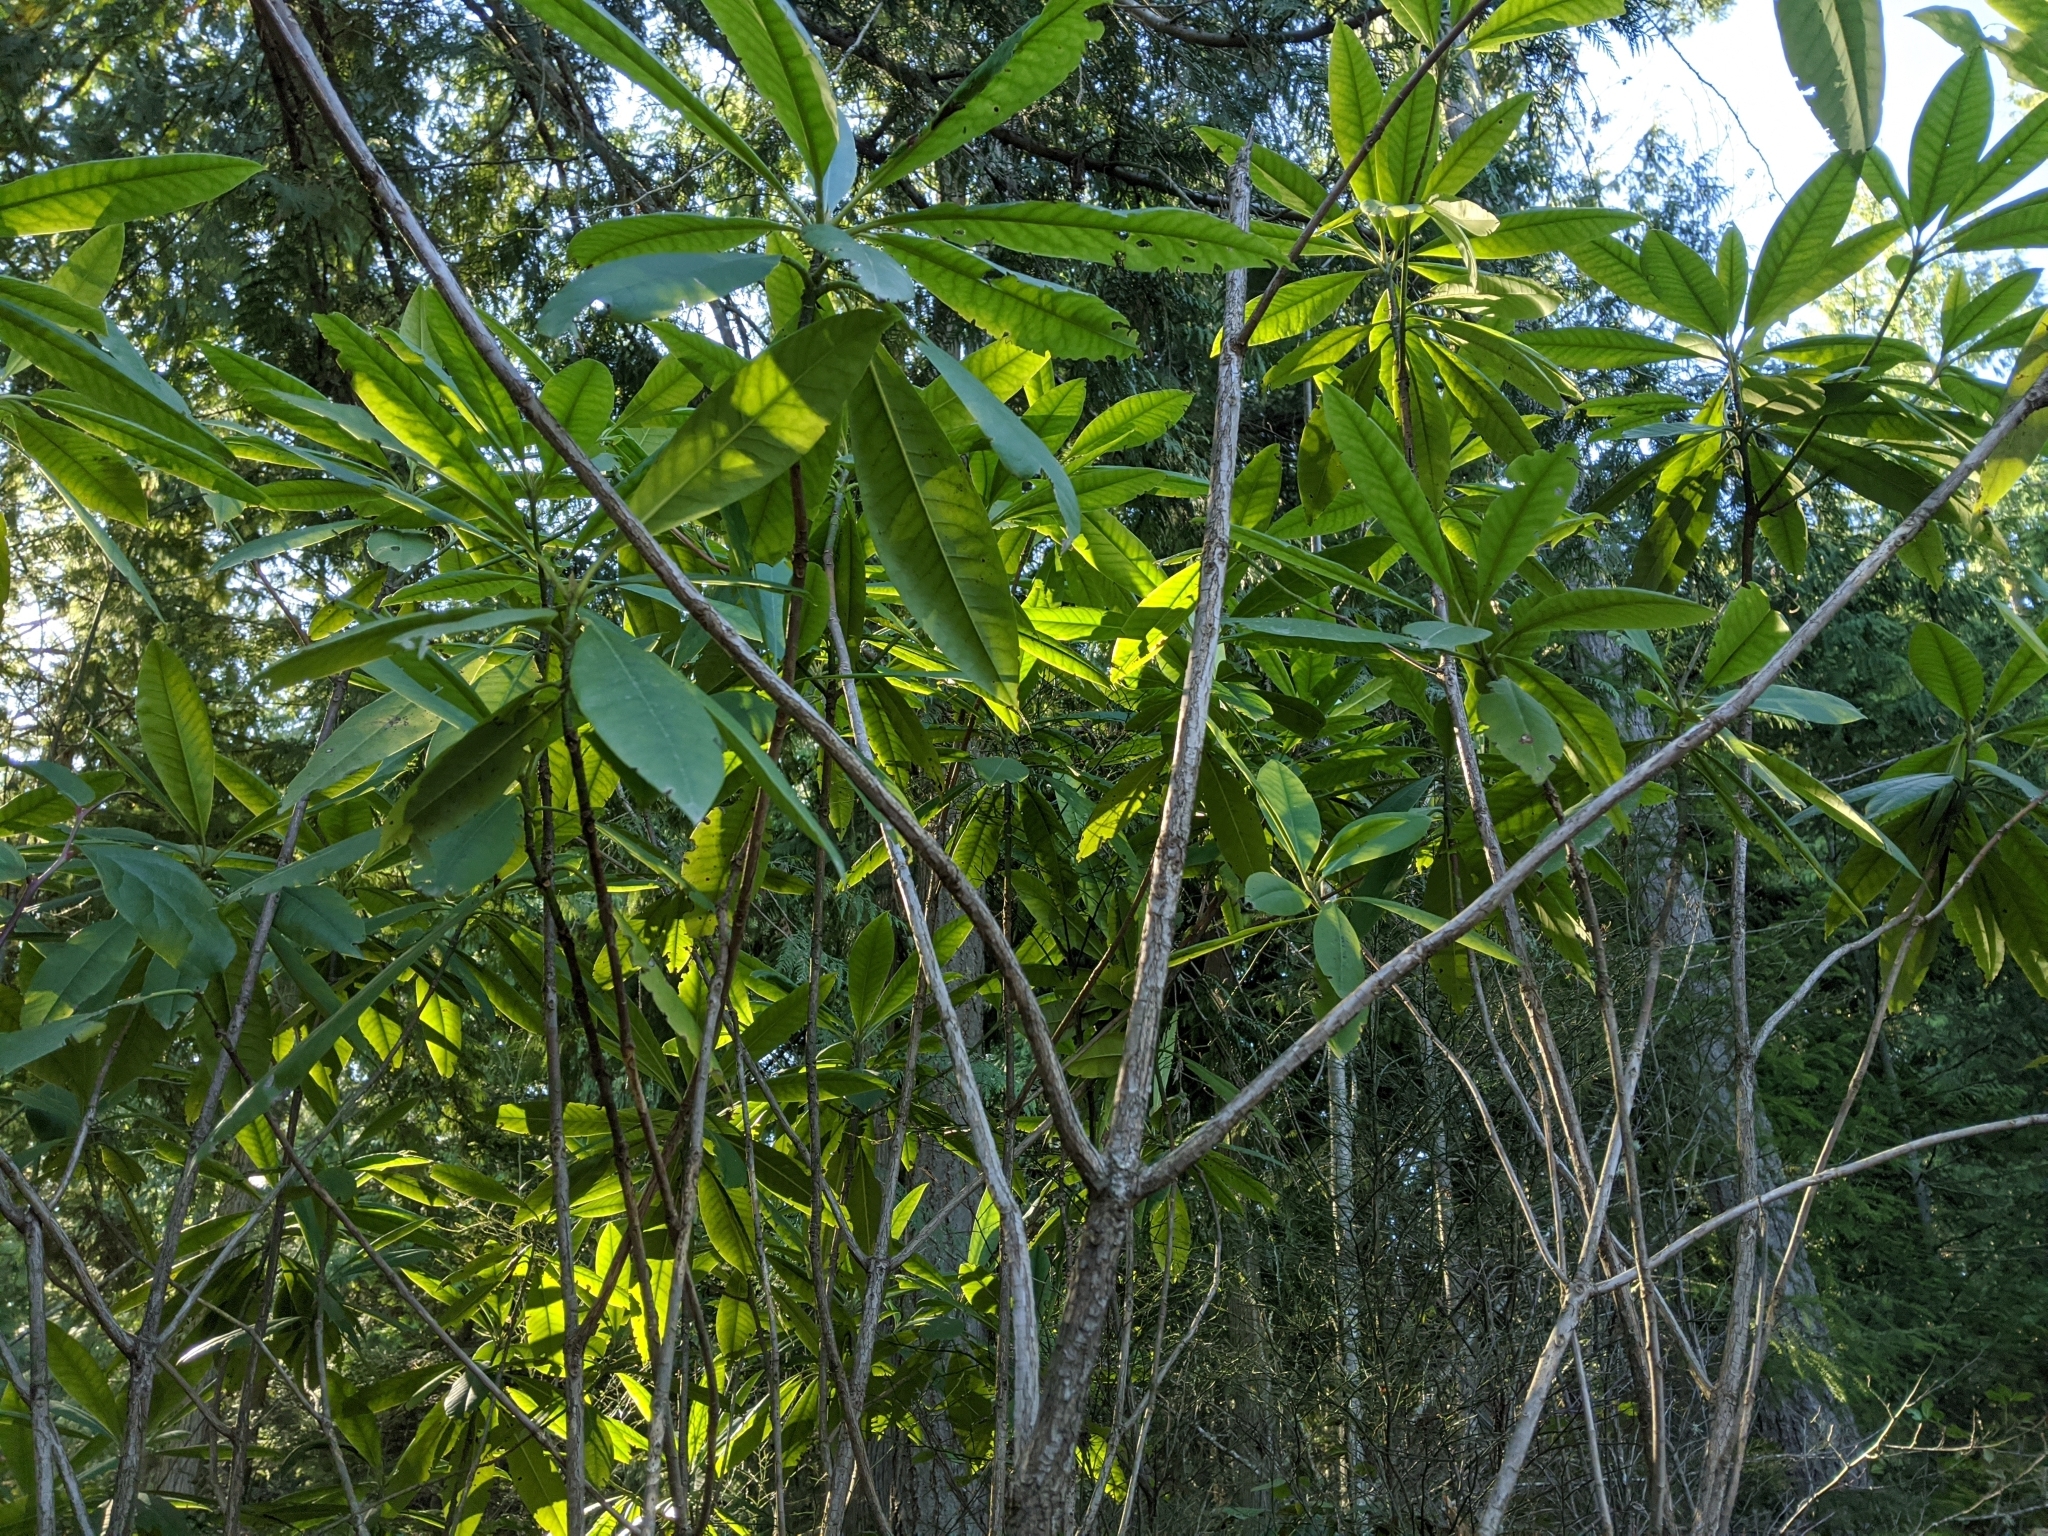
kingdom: Plantae
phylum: Tracheophyta
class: Magnoliopsida
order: Ericales
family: Ericaceae
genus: Rhododendron
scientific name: Rhododendron macrophyllum
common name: California rose bay
